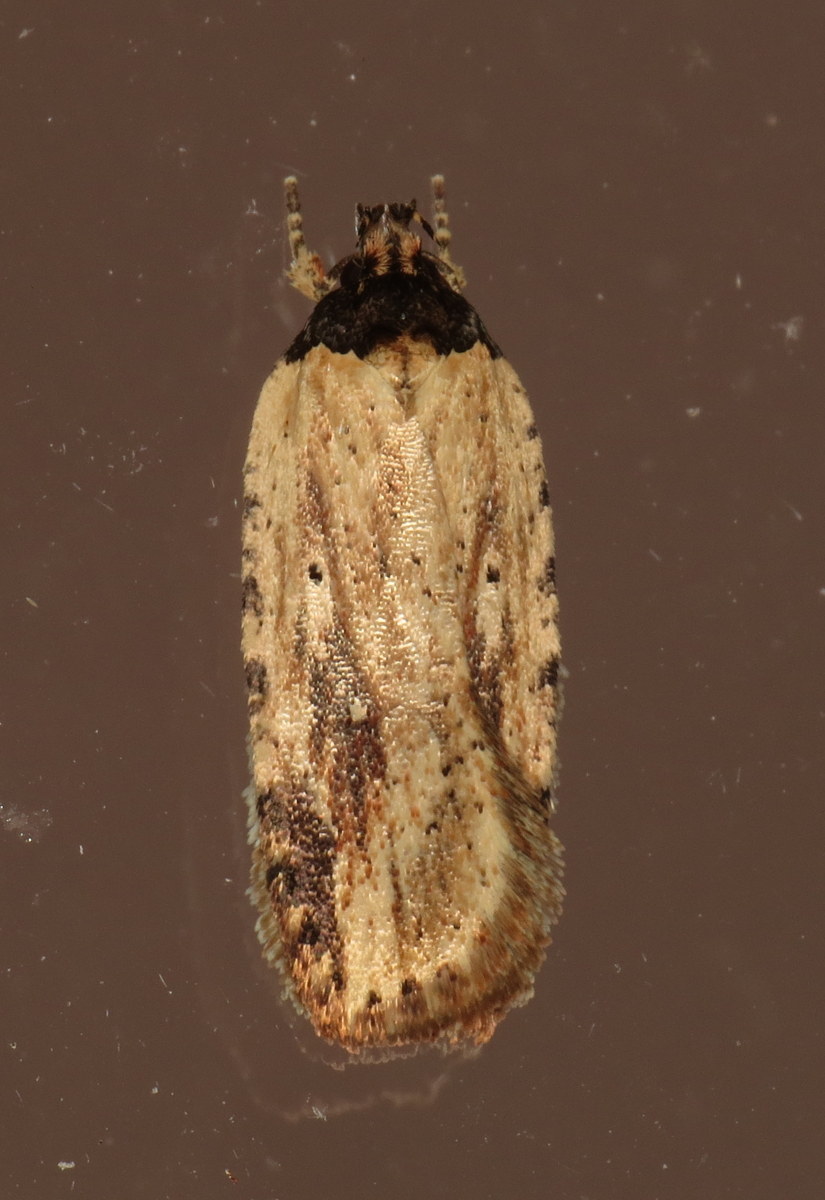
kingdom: Animalia
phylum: Arthropoda
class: Insecta
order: Lepidoptera
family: Depressariidae
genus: Agonopterix
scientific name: Agonopterix pulvipennella
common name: Goldenrod leafffolder
